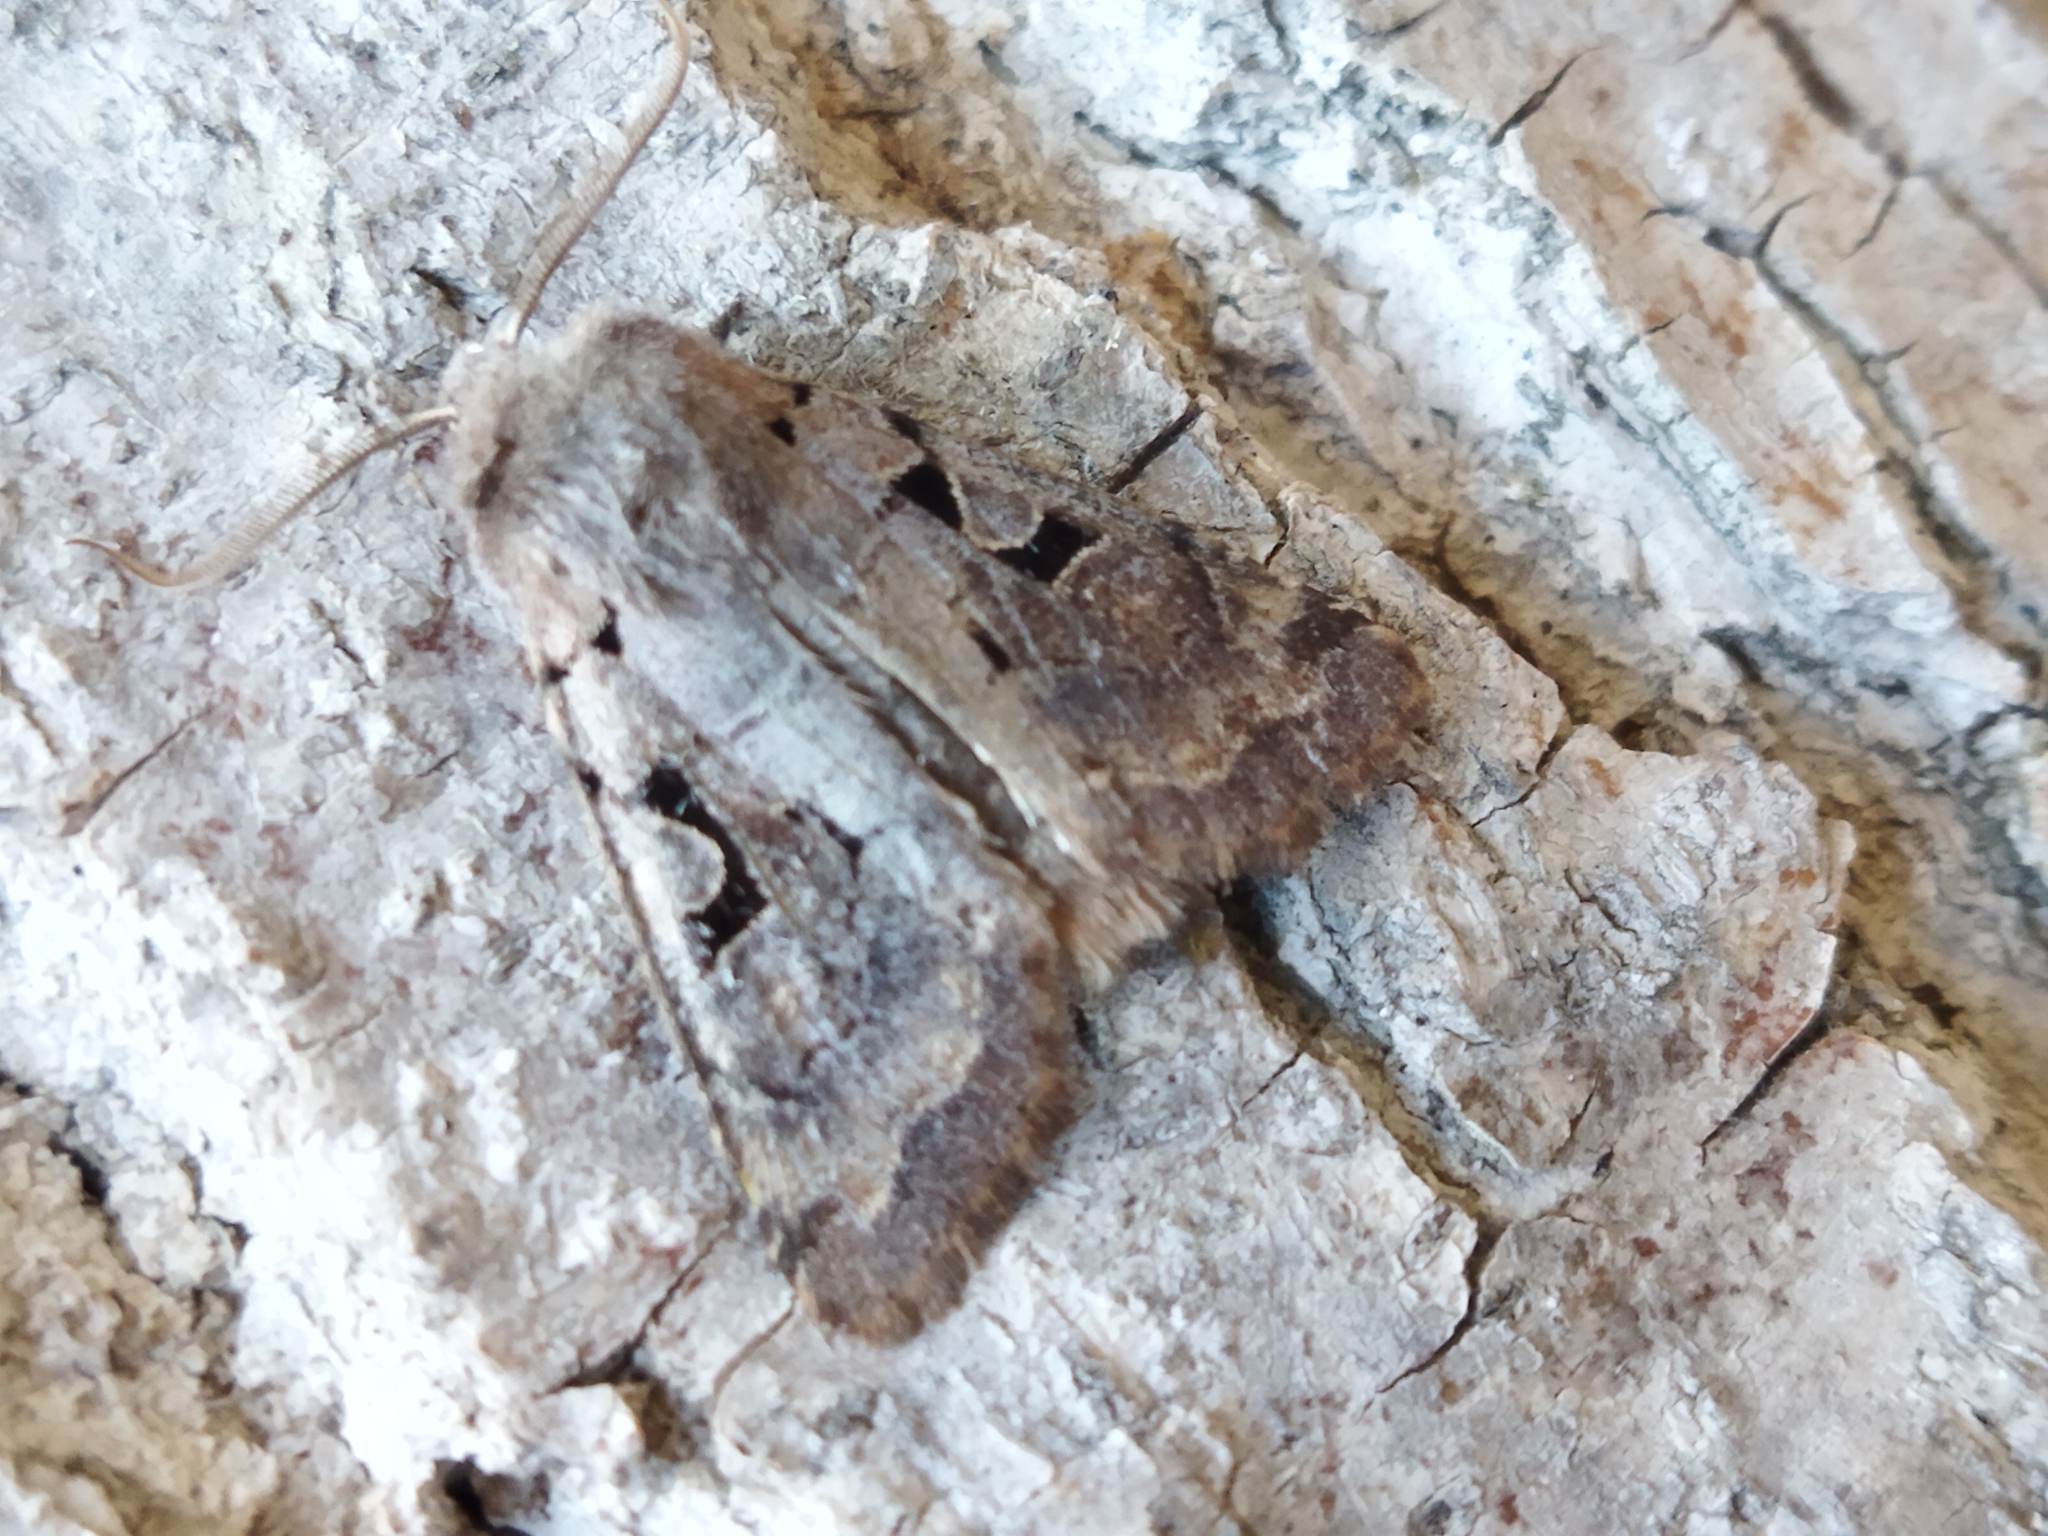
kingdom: Animalia
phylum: Arthropoda
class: Insecta
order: Lepidoptera
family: Noctuidae
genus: Orthosia
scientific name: Orthosia gothica
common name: Hebrew character
